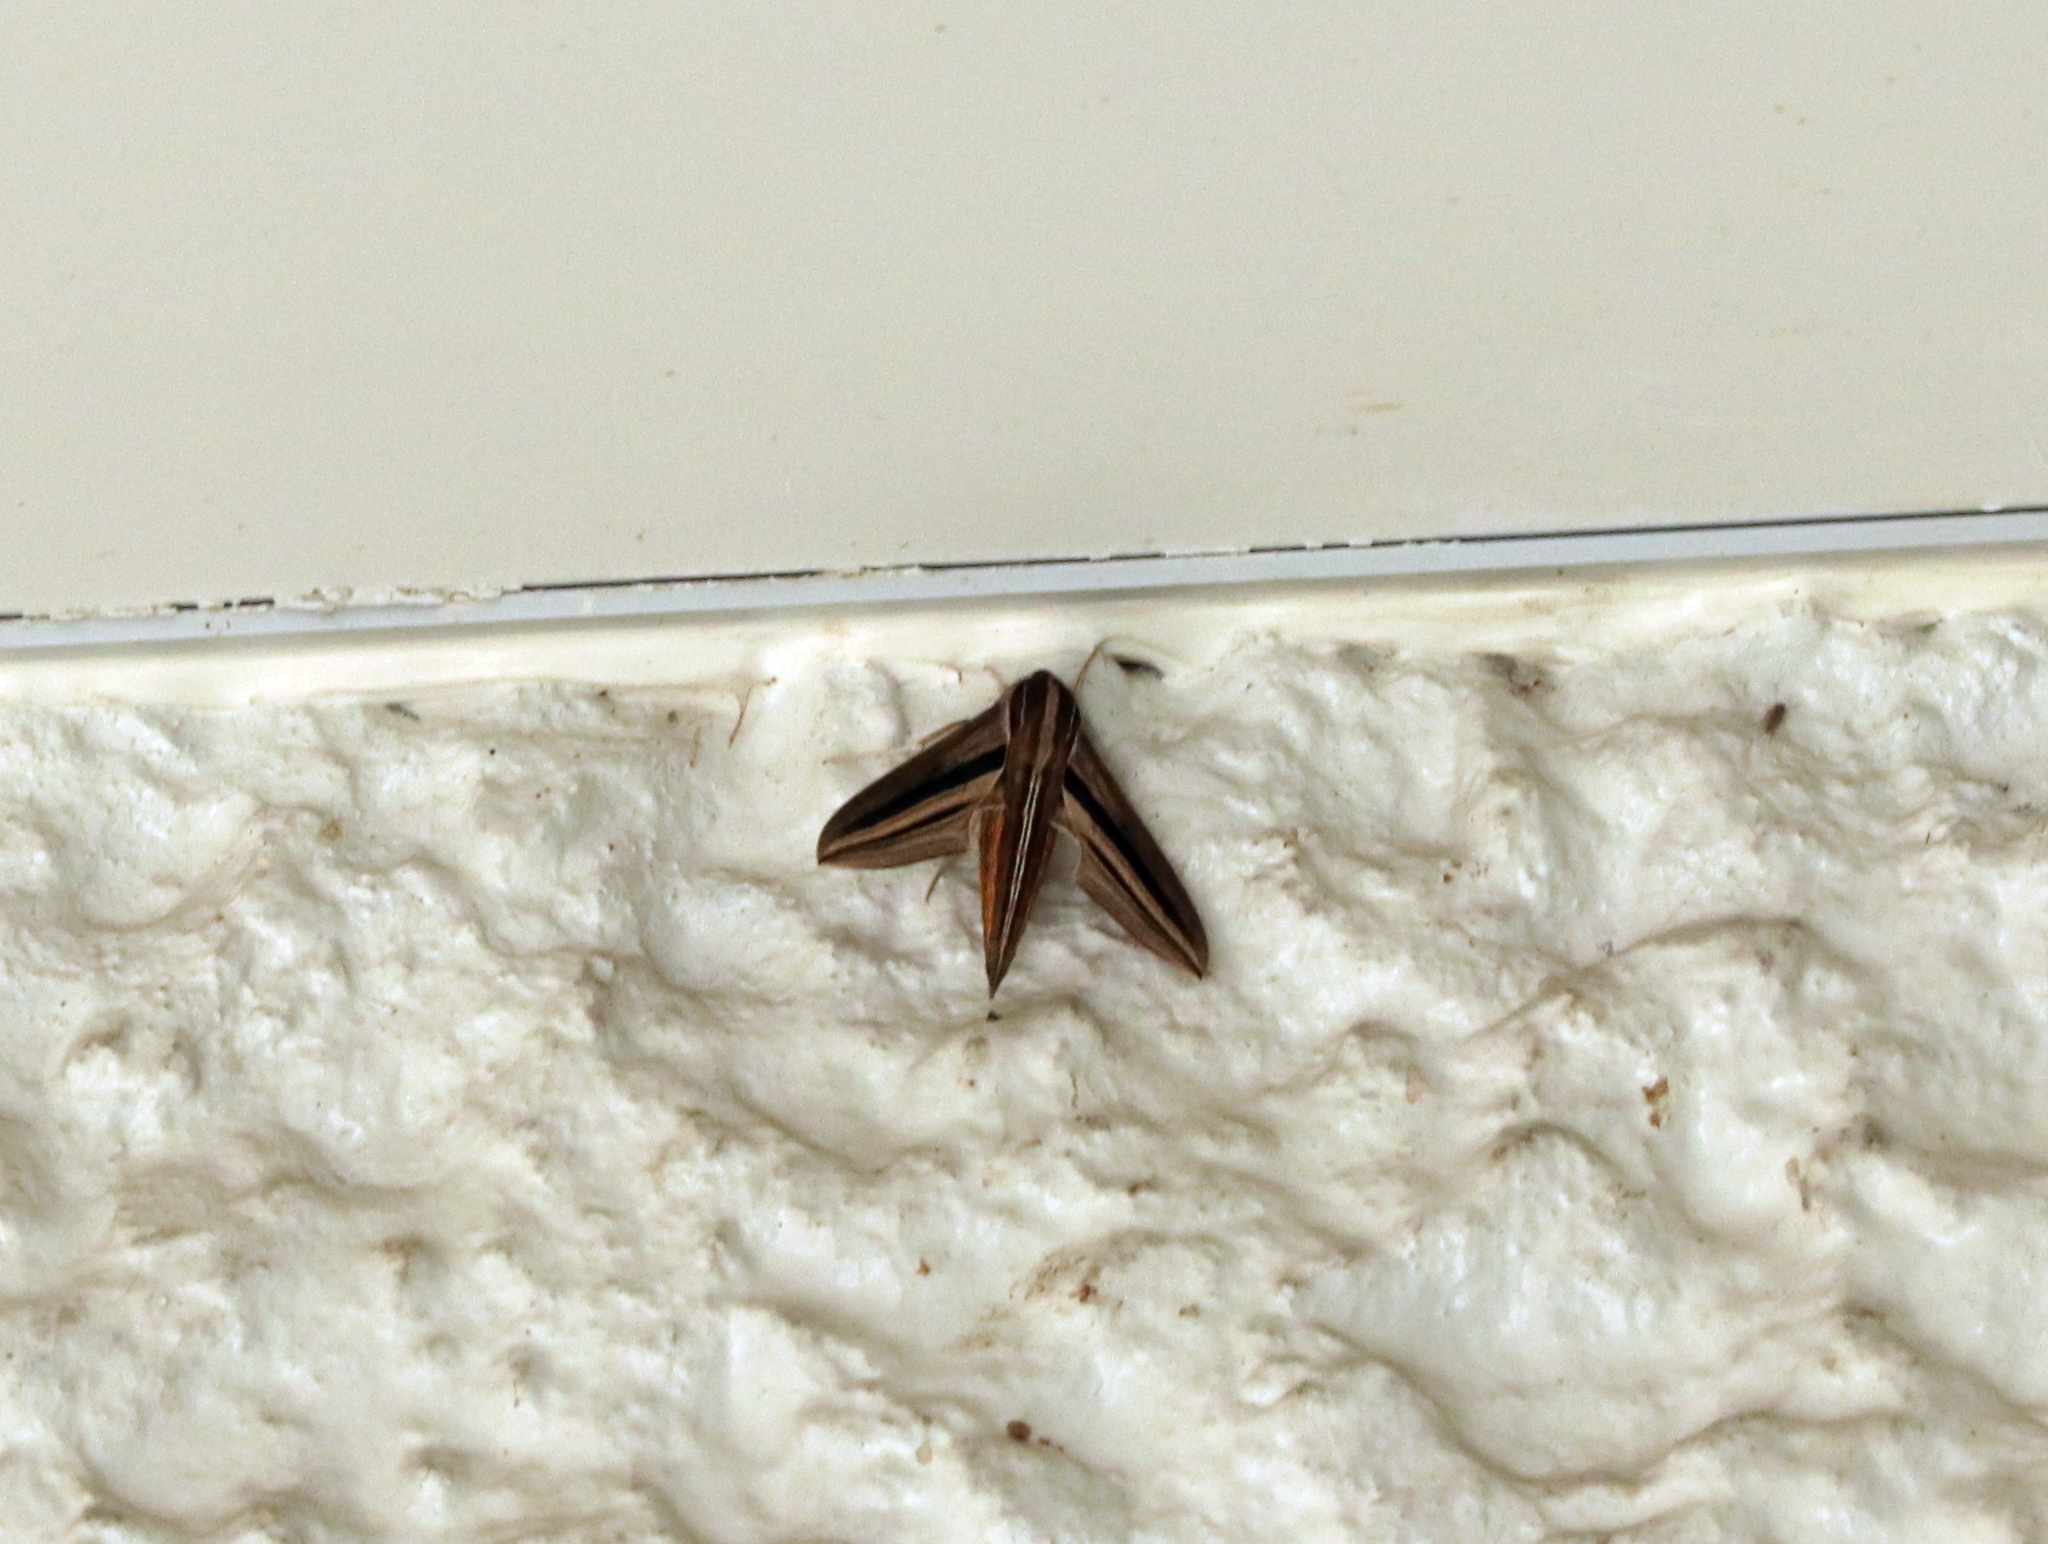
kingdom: Animalia
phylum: Arthropoda
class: Insecta
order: Lepidoptera
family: Sphingidae
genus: Theretra
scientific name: Theretra oldenlandiae
